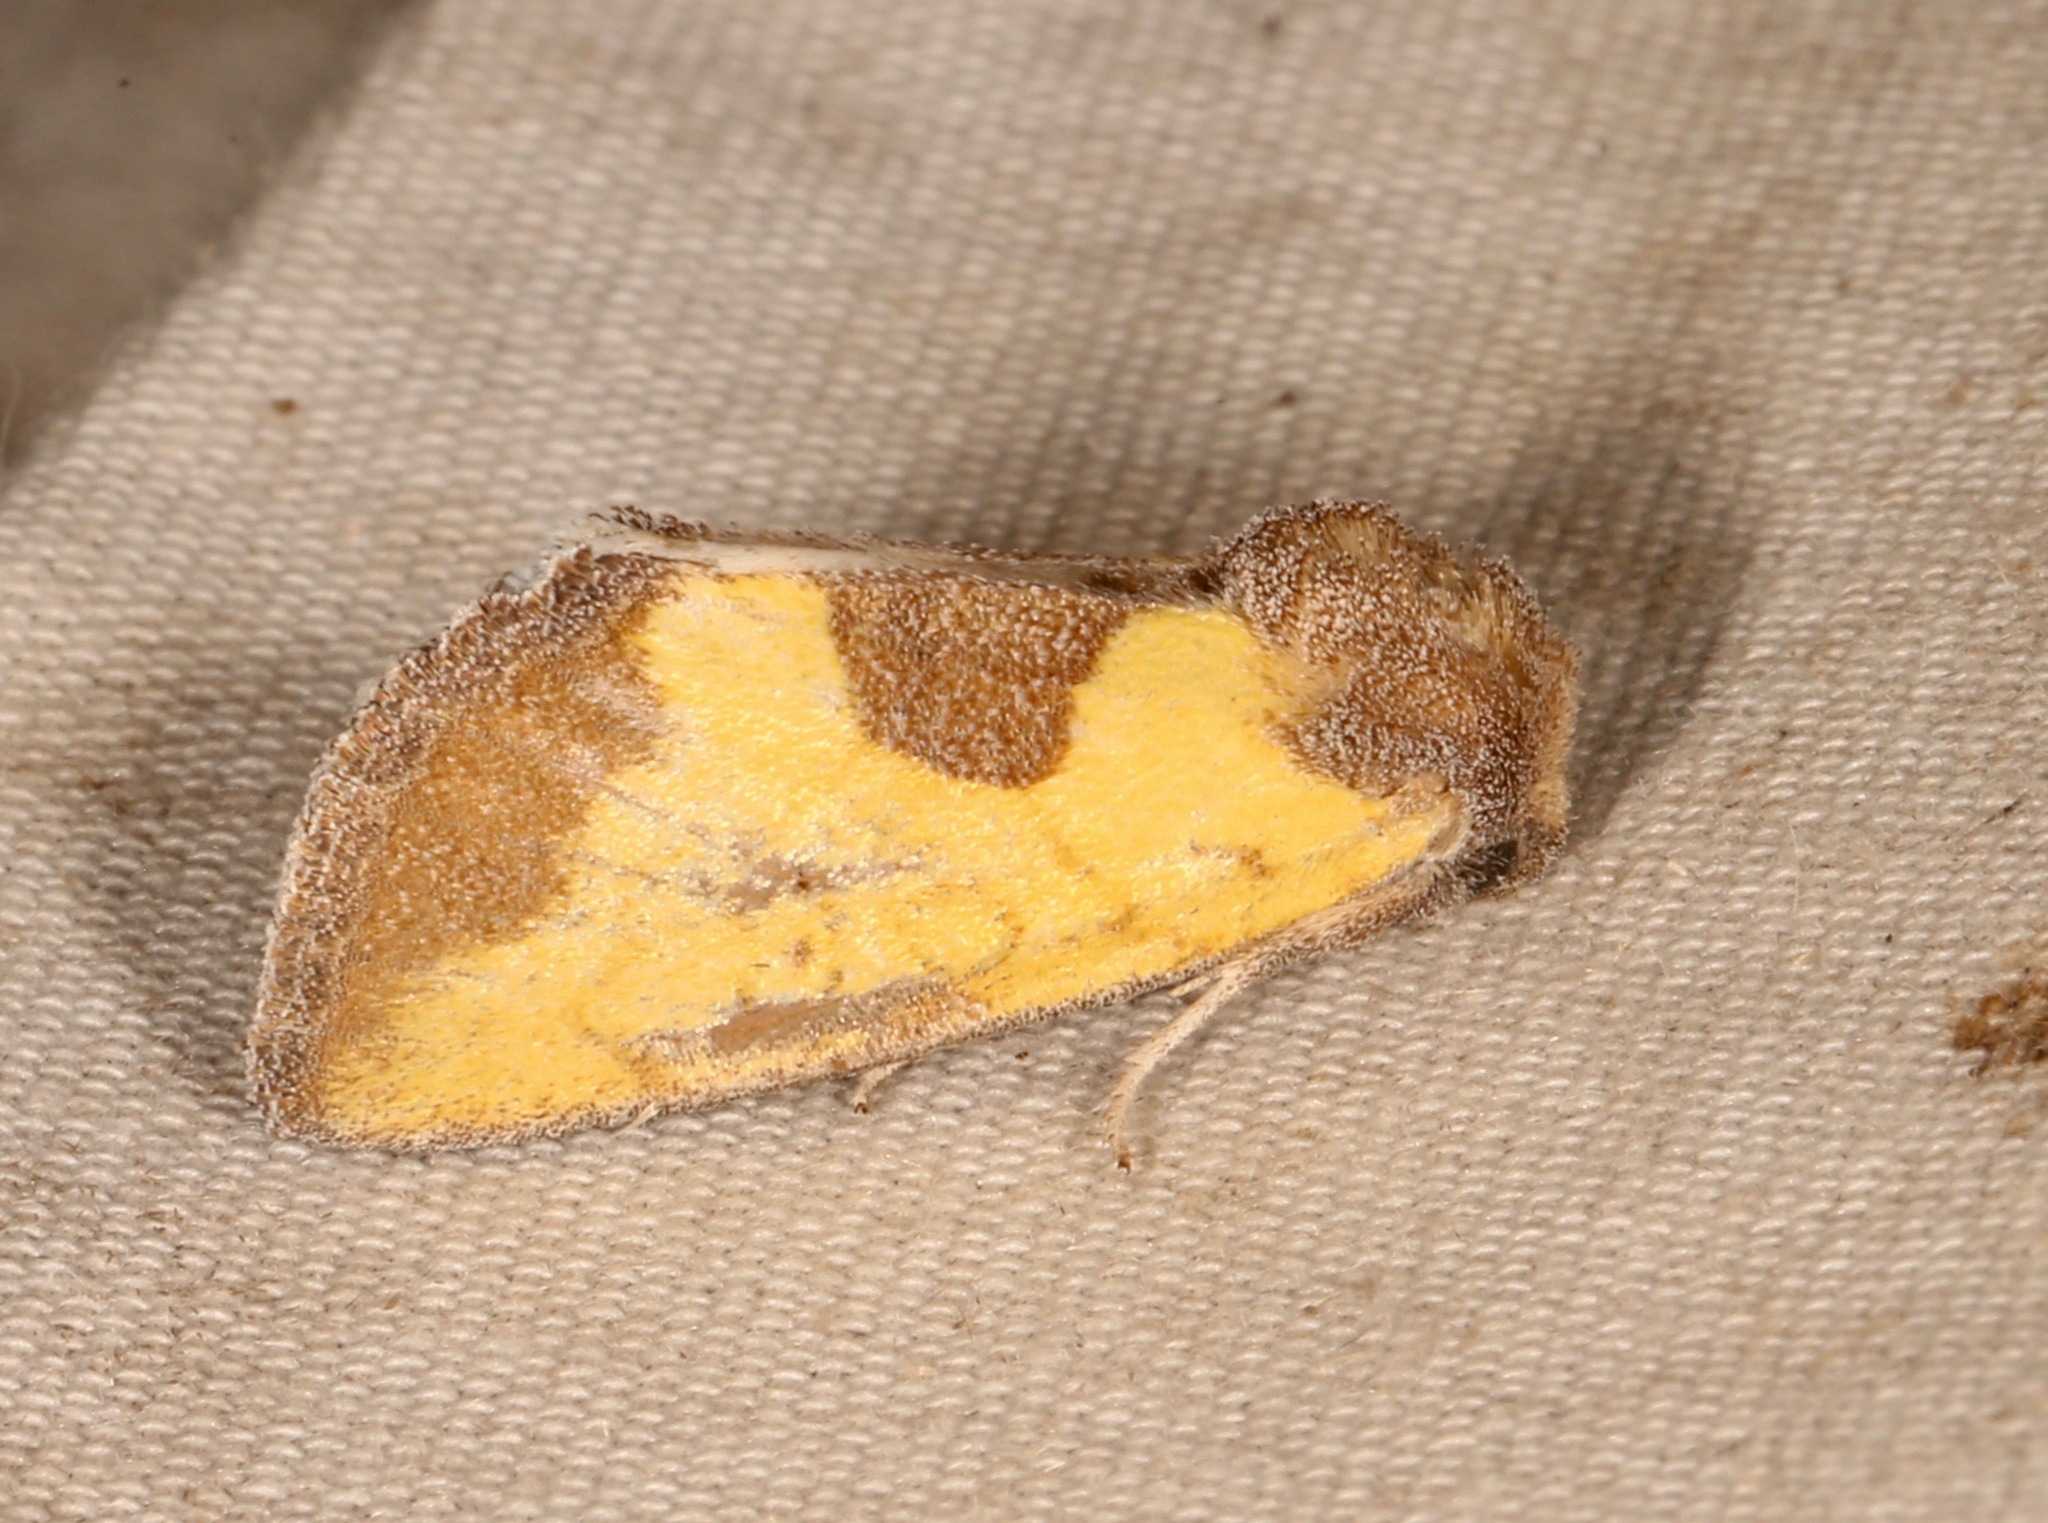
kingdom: Animalia
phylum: Arthropoda
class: Insecta
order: Lepidoptera
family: Noctuidae
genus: Stiria
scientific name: Stiria dyari
